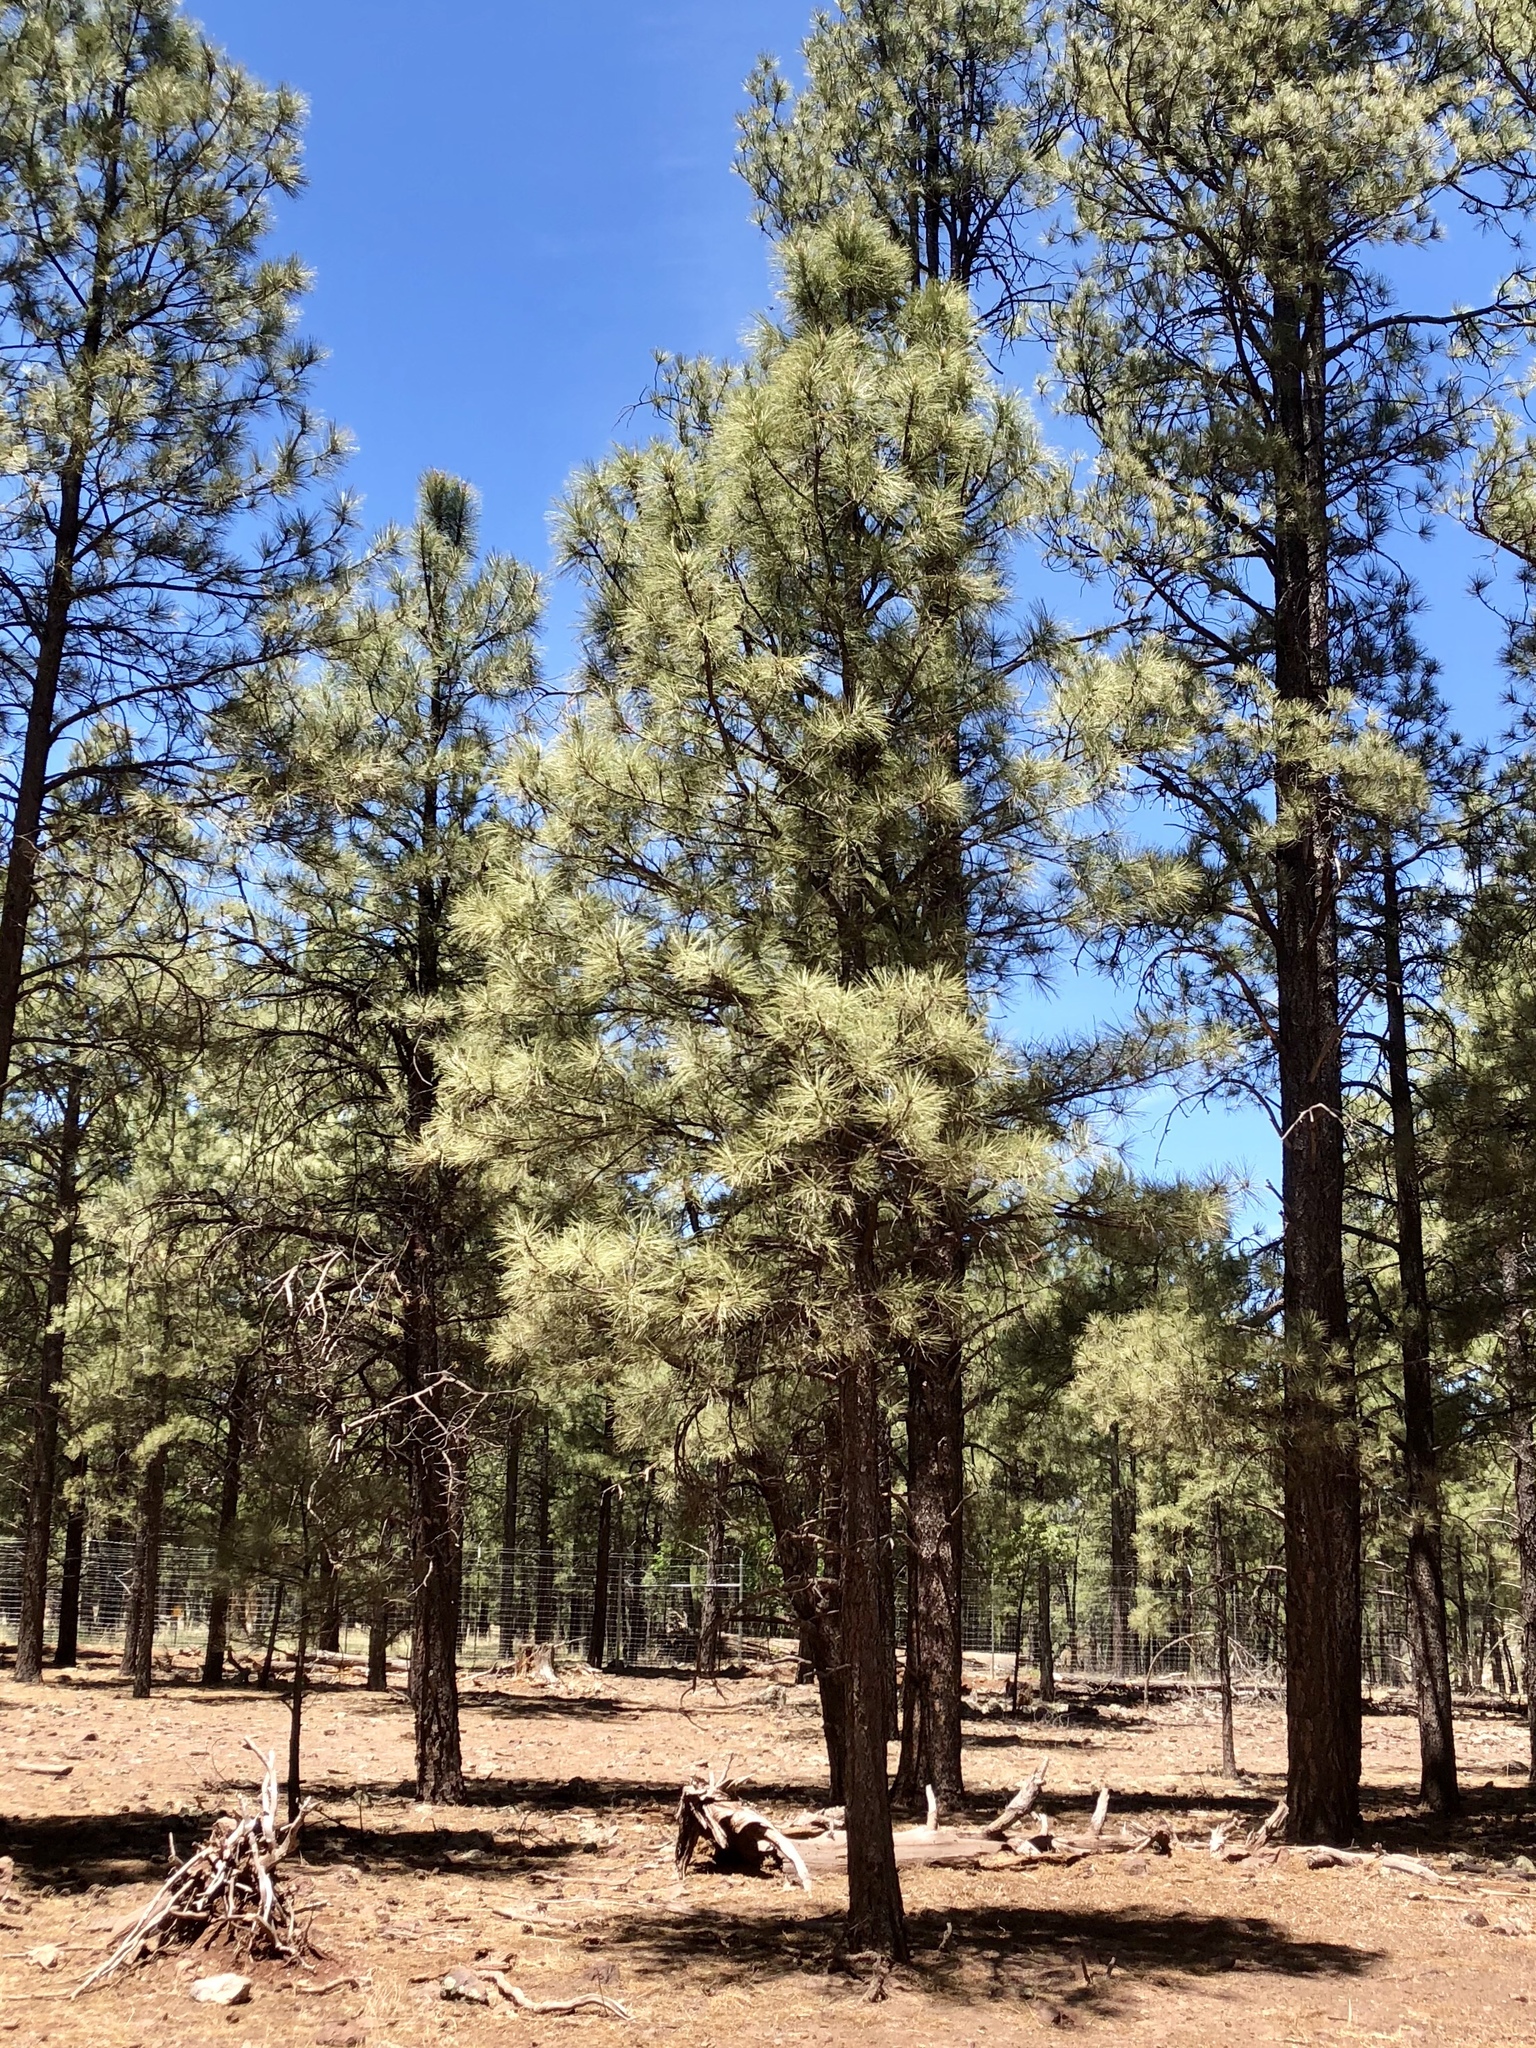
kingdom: Plantae
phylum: Tracheophyta
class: Pinopsida
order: Pinales
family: Pinaceae
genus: Pinus
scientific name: Pinus ponderosa
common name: Western yellow-pine
